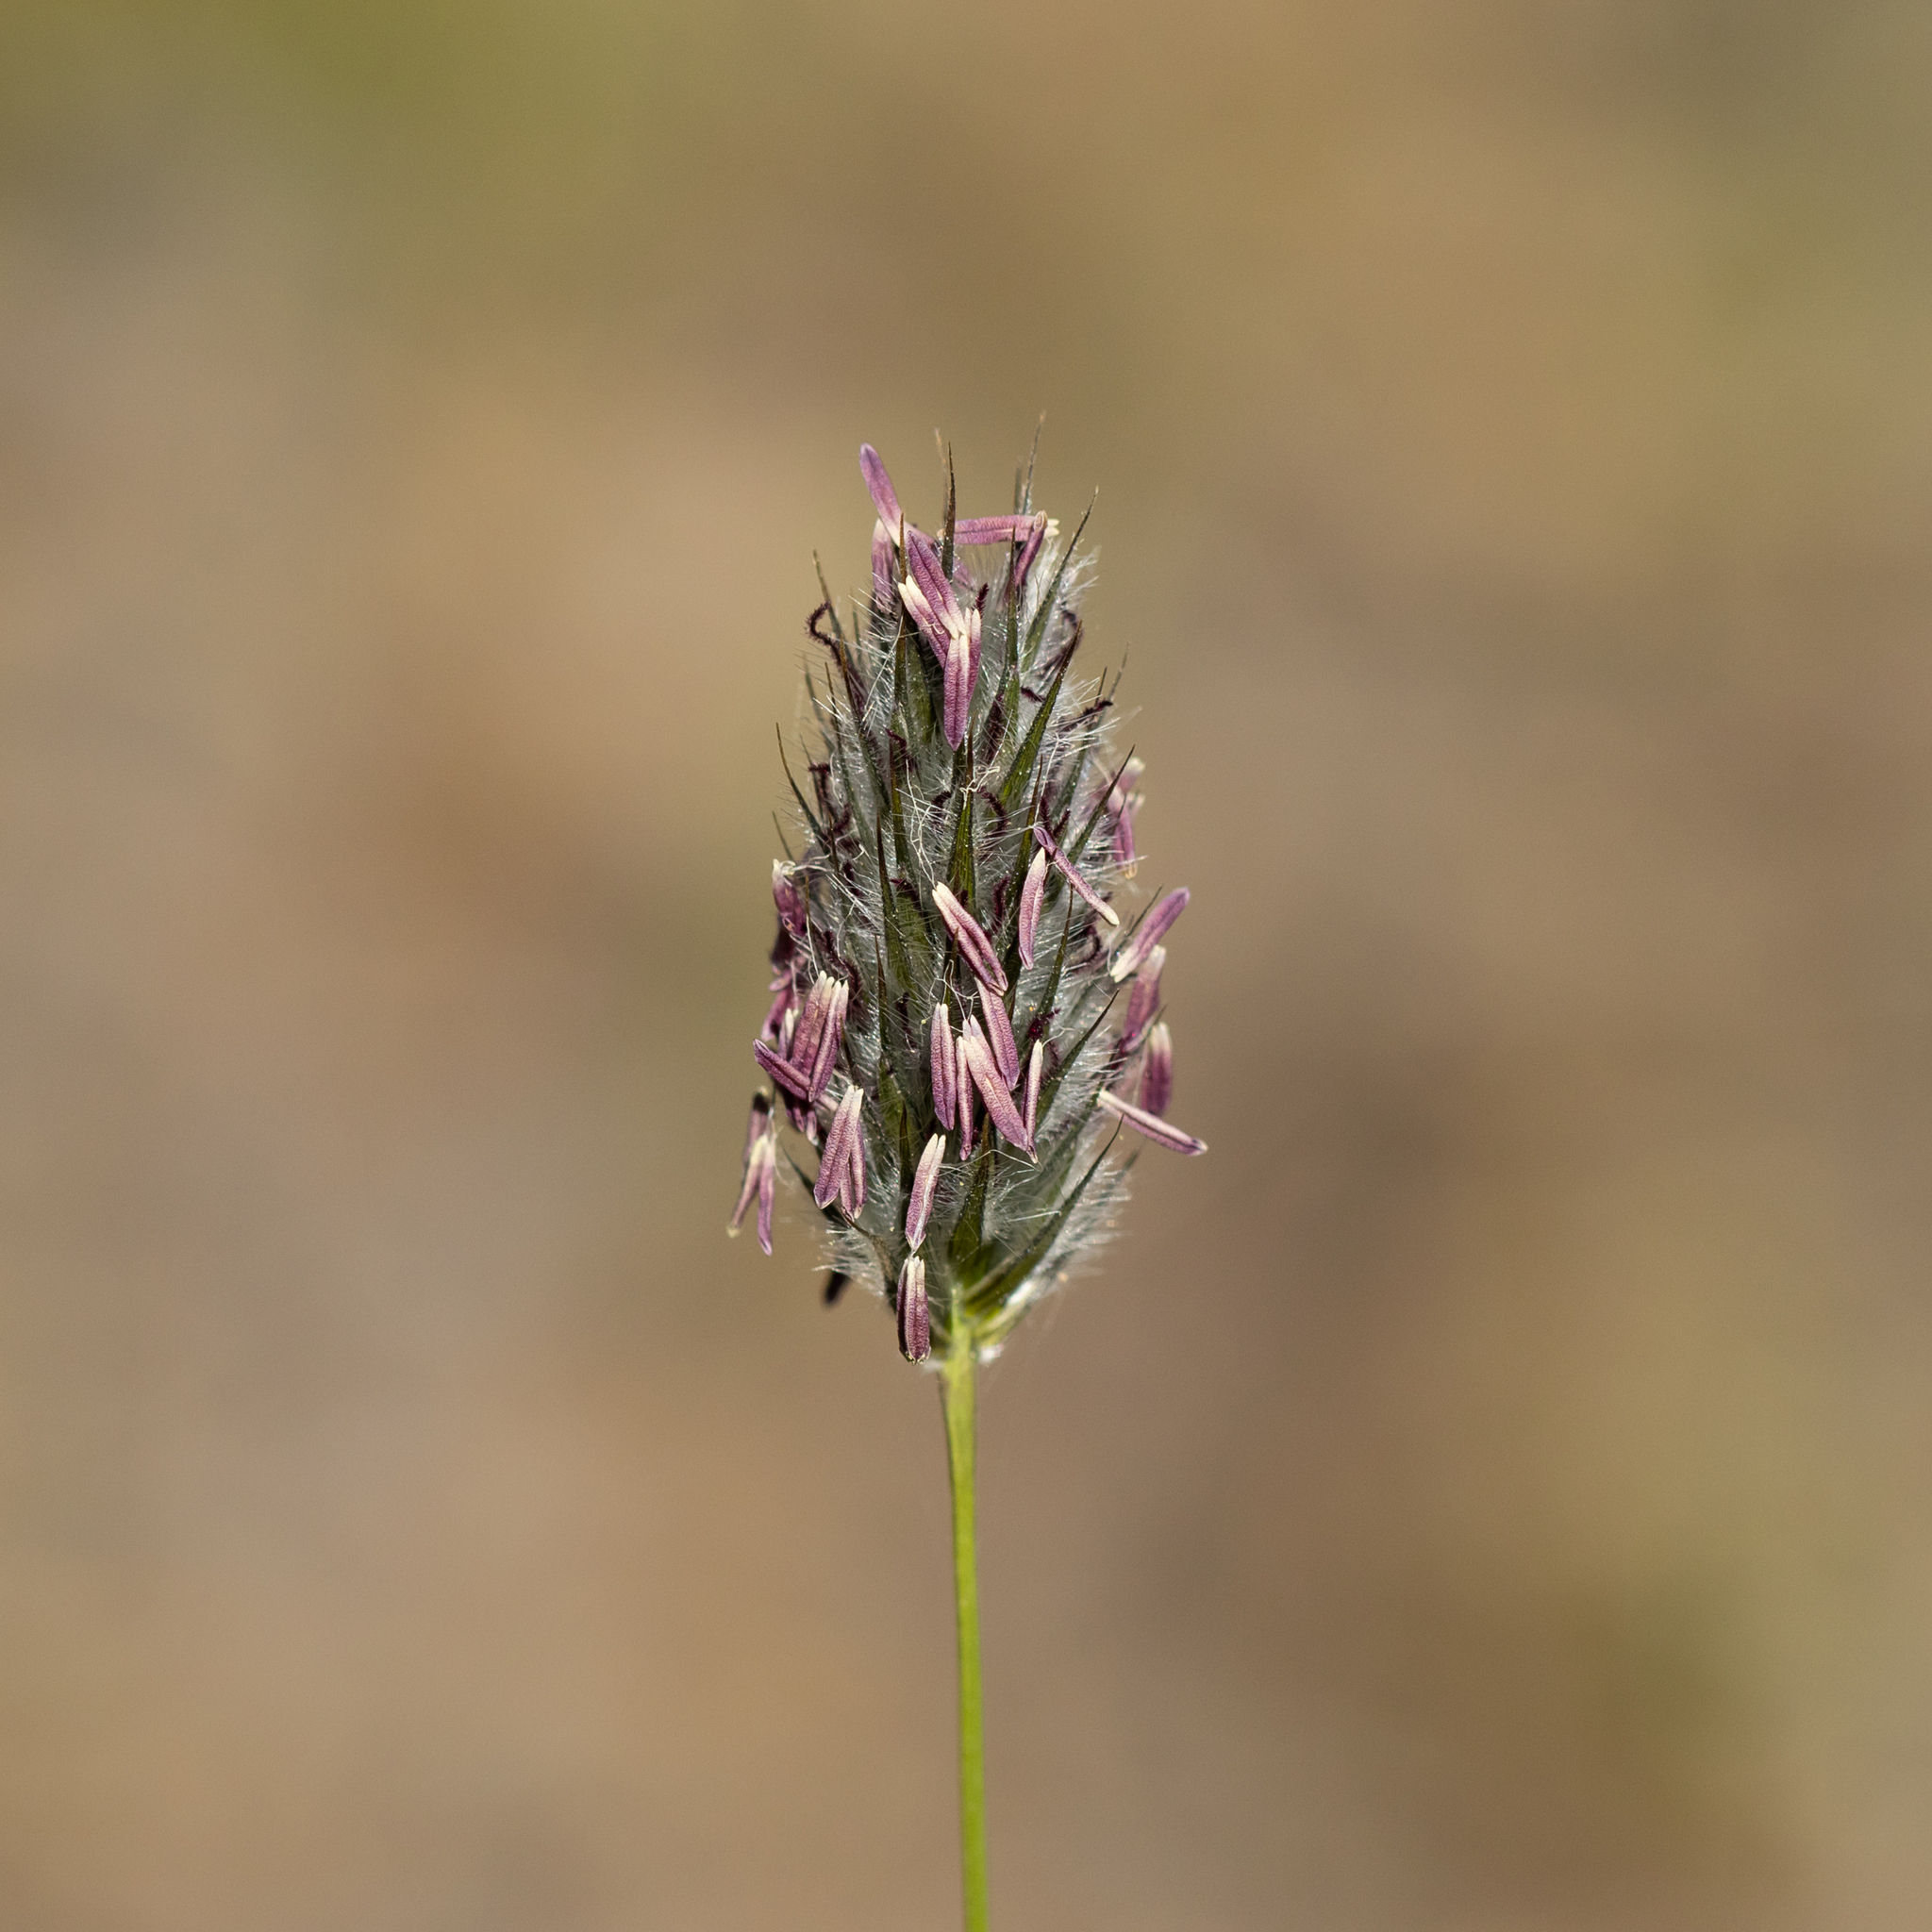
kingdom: Plantae
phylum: Tracheophyta
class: Liliopsida
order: Poales
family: Poaceae
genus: Neurachne
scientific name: Neurachne alopecuroidea
